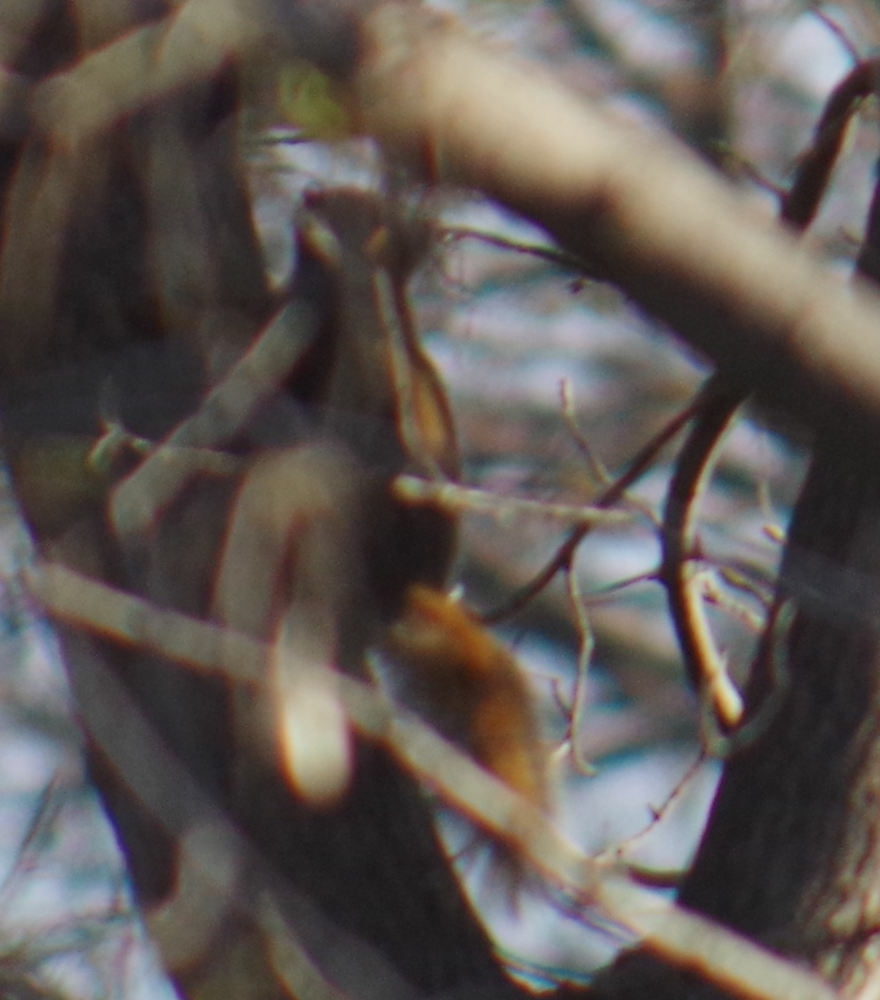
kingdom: Animalia
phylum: Chordata
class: Mammalia
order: Rodentia
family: Sciuridae
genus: Tamiasciurus
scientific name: Tamiasciurus hudsonicus
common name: Red squirrel
